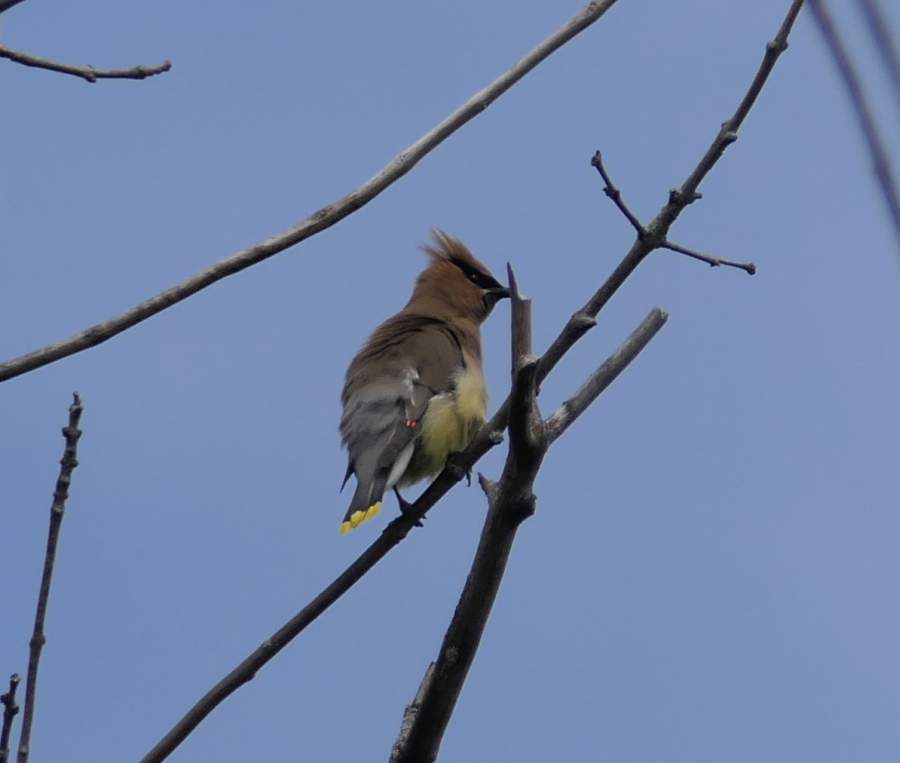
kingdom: Animalia
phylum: Chordata
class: Aves
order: Passeriformes
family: Bombycillidae
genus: Bombycilla
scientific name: Bombycilla cedrorum
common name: Cedar waxwing
